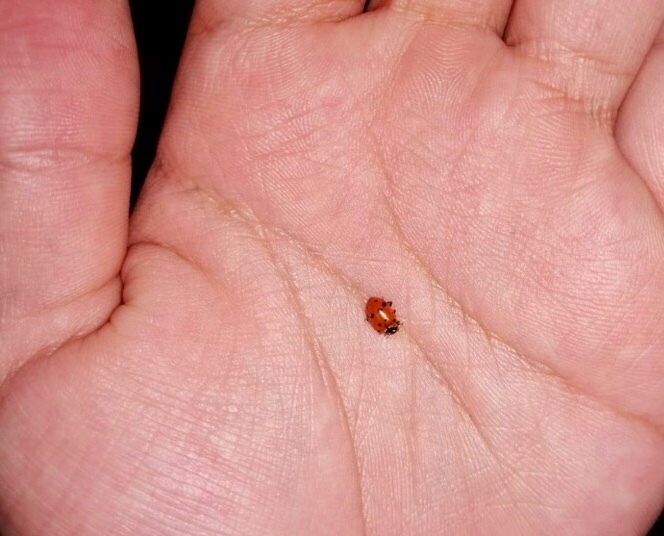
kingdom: Animalia
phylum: Arthropoda
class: Insecta
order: Coleoptera
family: Coccinellidae
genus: Hippodamia
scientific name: Hippodamia convergens
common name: Convergent lady beetle
